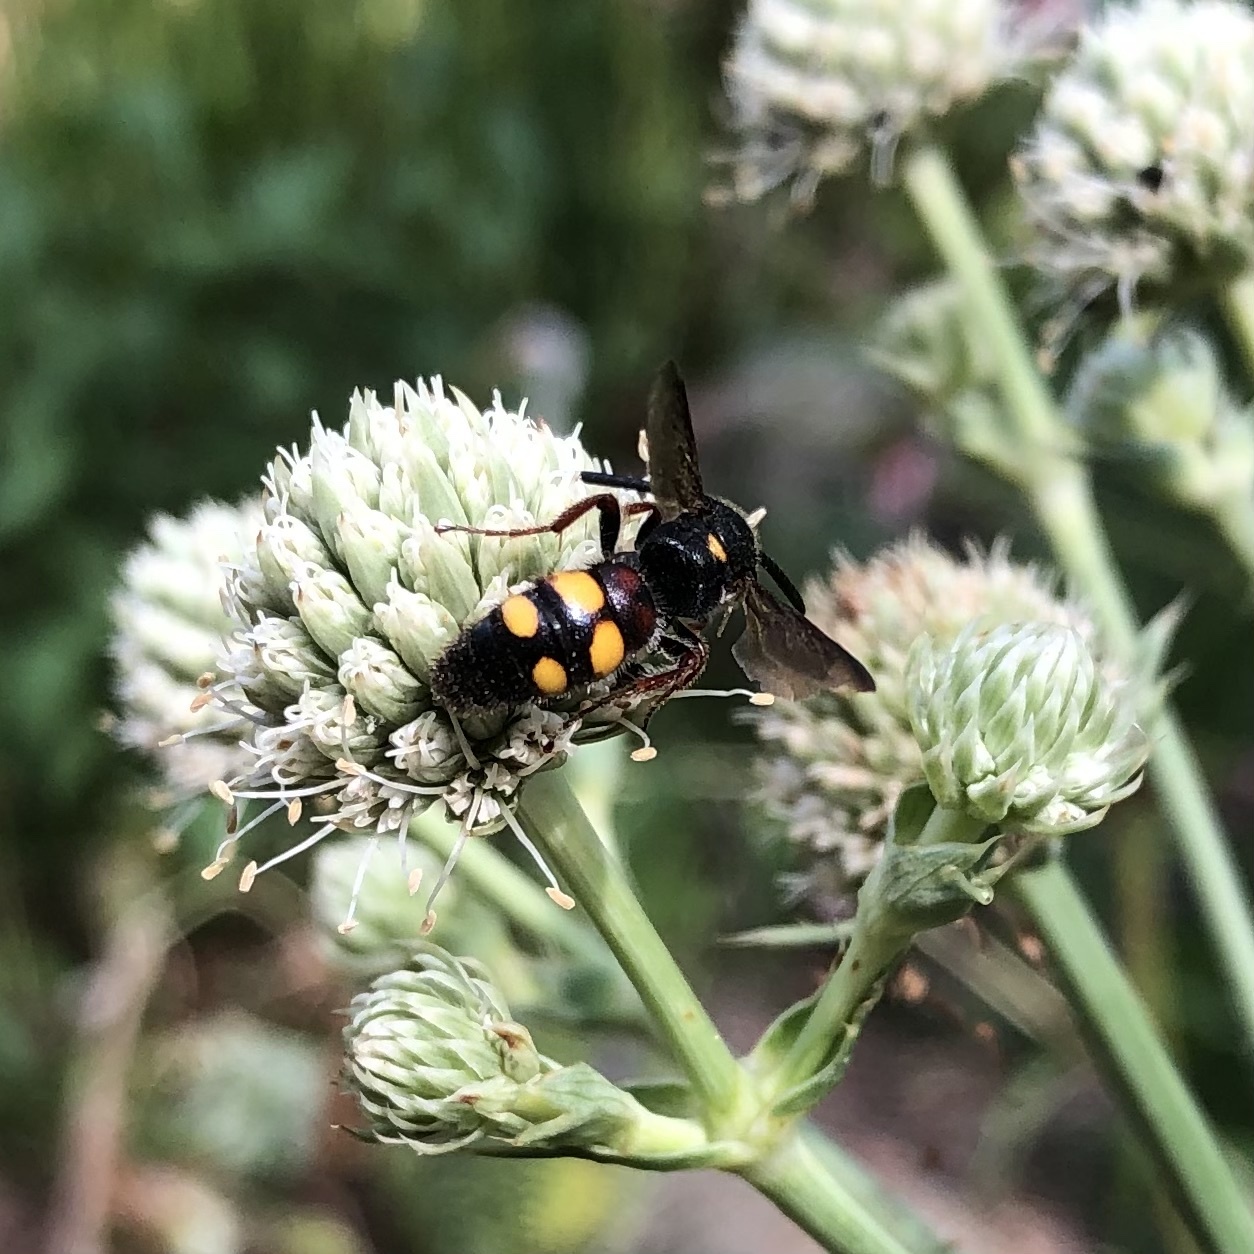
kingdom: Animalia
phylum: Arthropoda
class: Insecta
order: Hymenoptera
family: Scoliidae
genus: Scolia
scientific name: Scolia nobilitata
